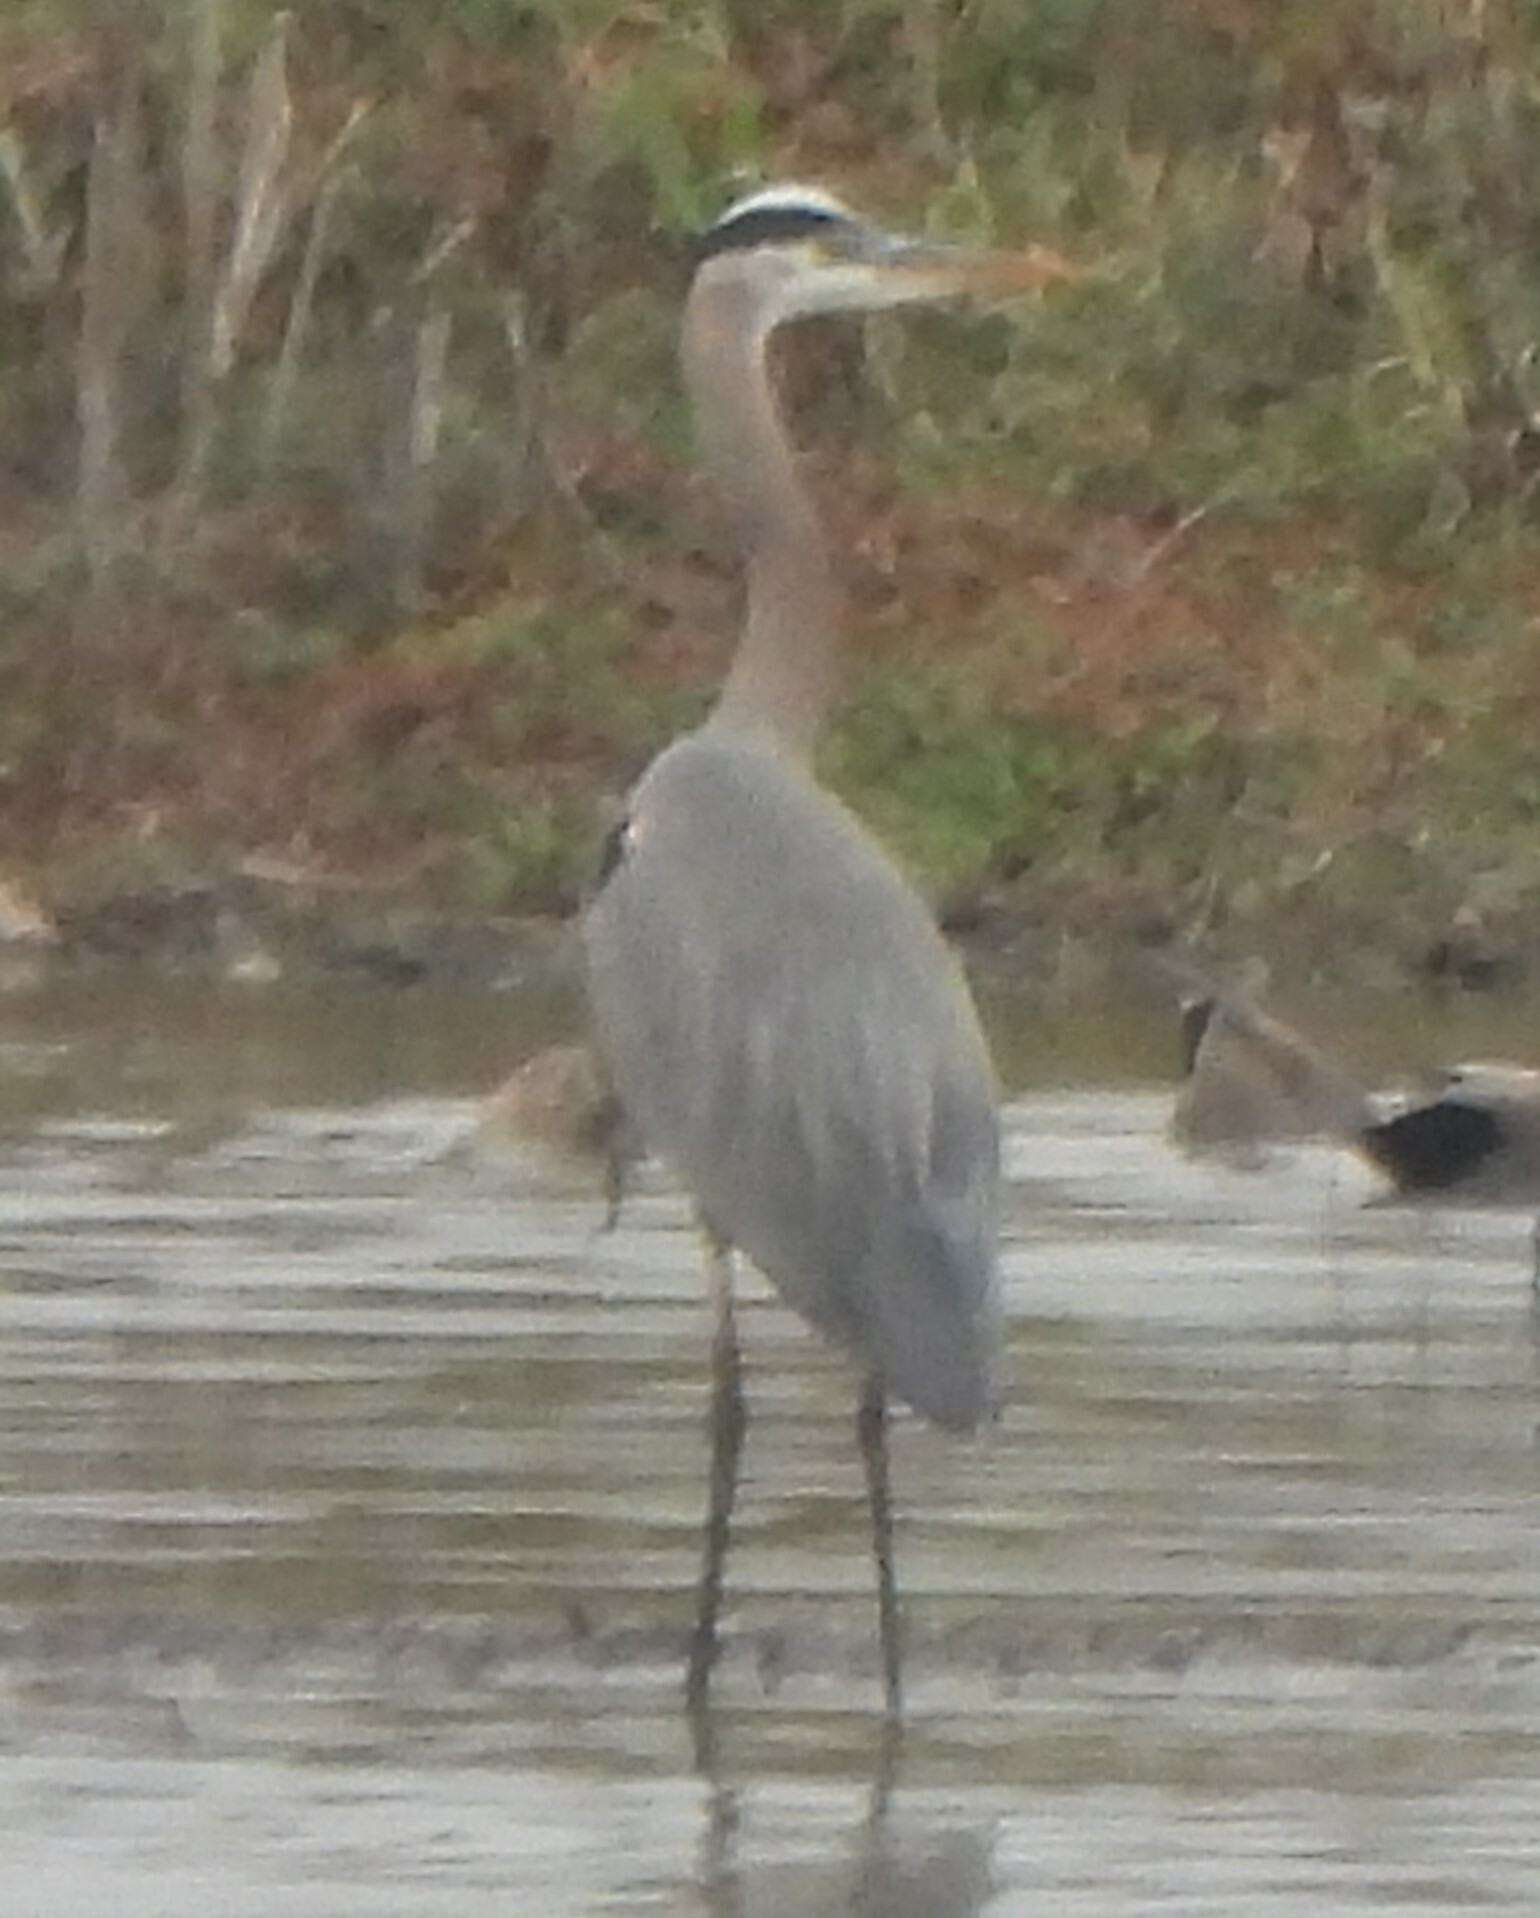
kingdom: Animalia
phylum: Chordata
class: Aves
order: Pelecaniformes
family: Ardeidae
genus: Ardea
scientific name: Ardea herodias
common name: Great blue heron
